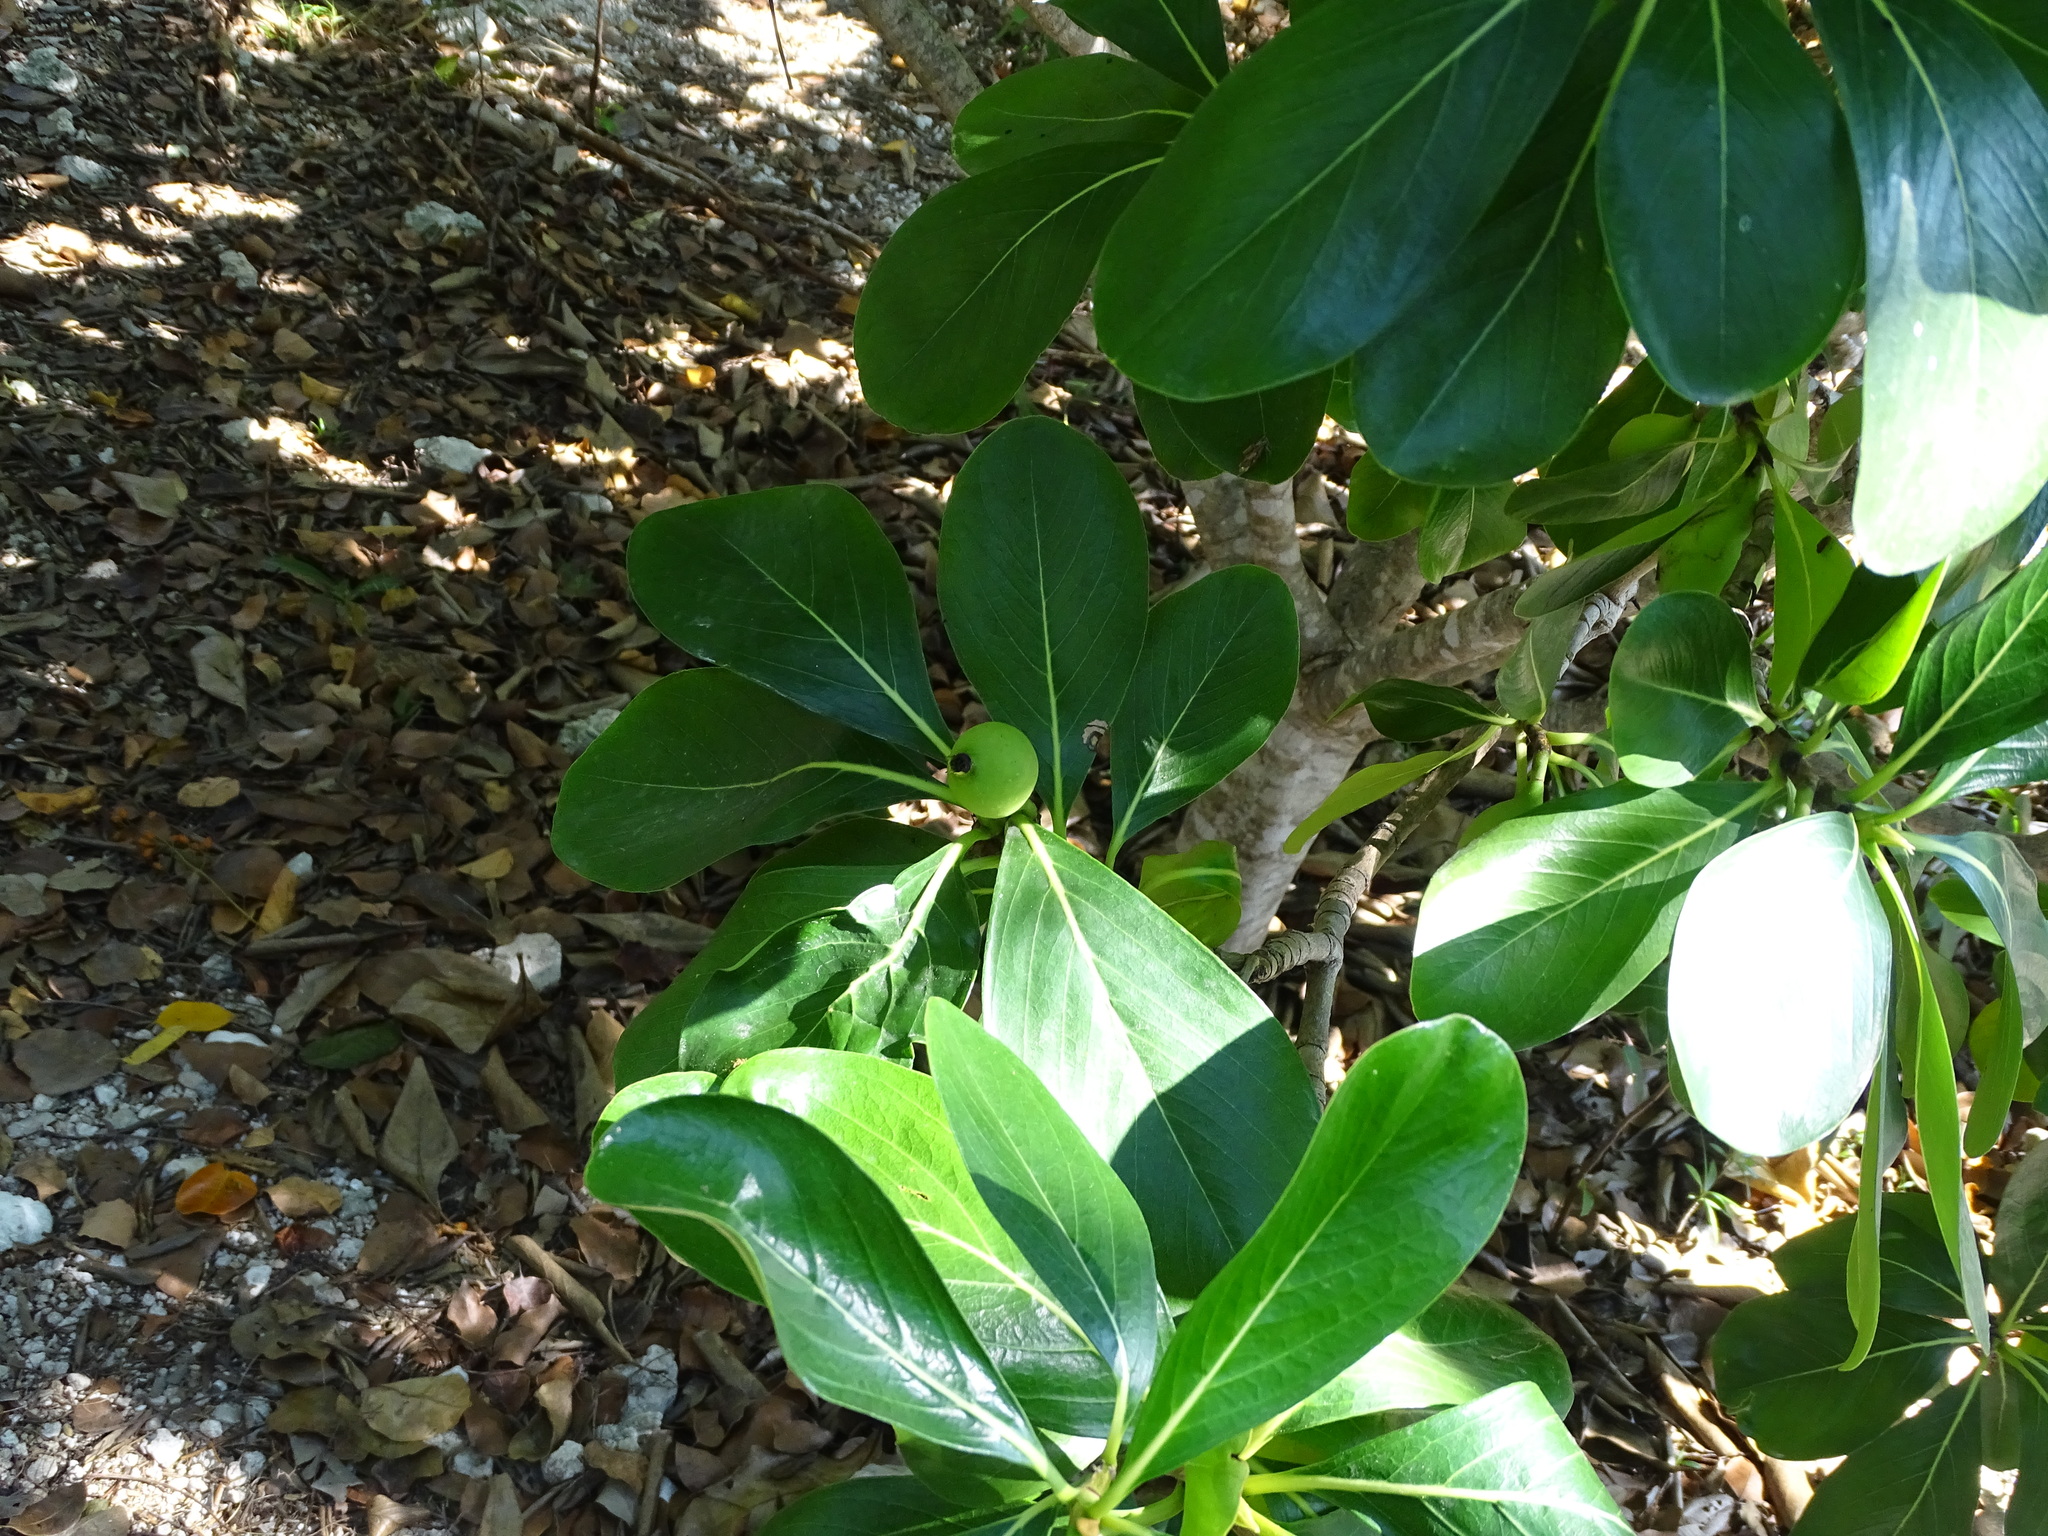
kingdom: Plantae
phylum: Tracheophyta
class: Magnoliopsida
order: Gentianales
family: Rubiaceae
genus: Casasia
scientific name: Casasia clusiifolia
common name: Seven-year apple
